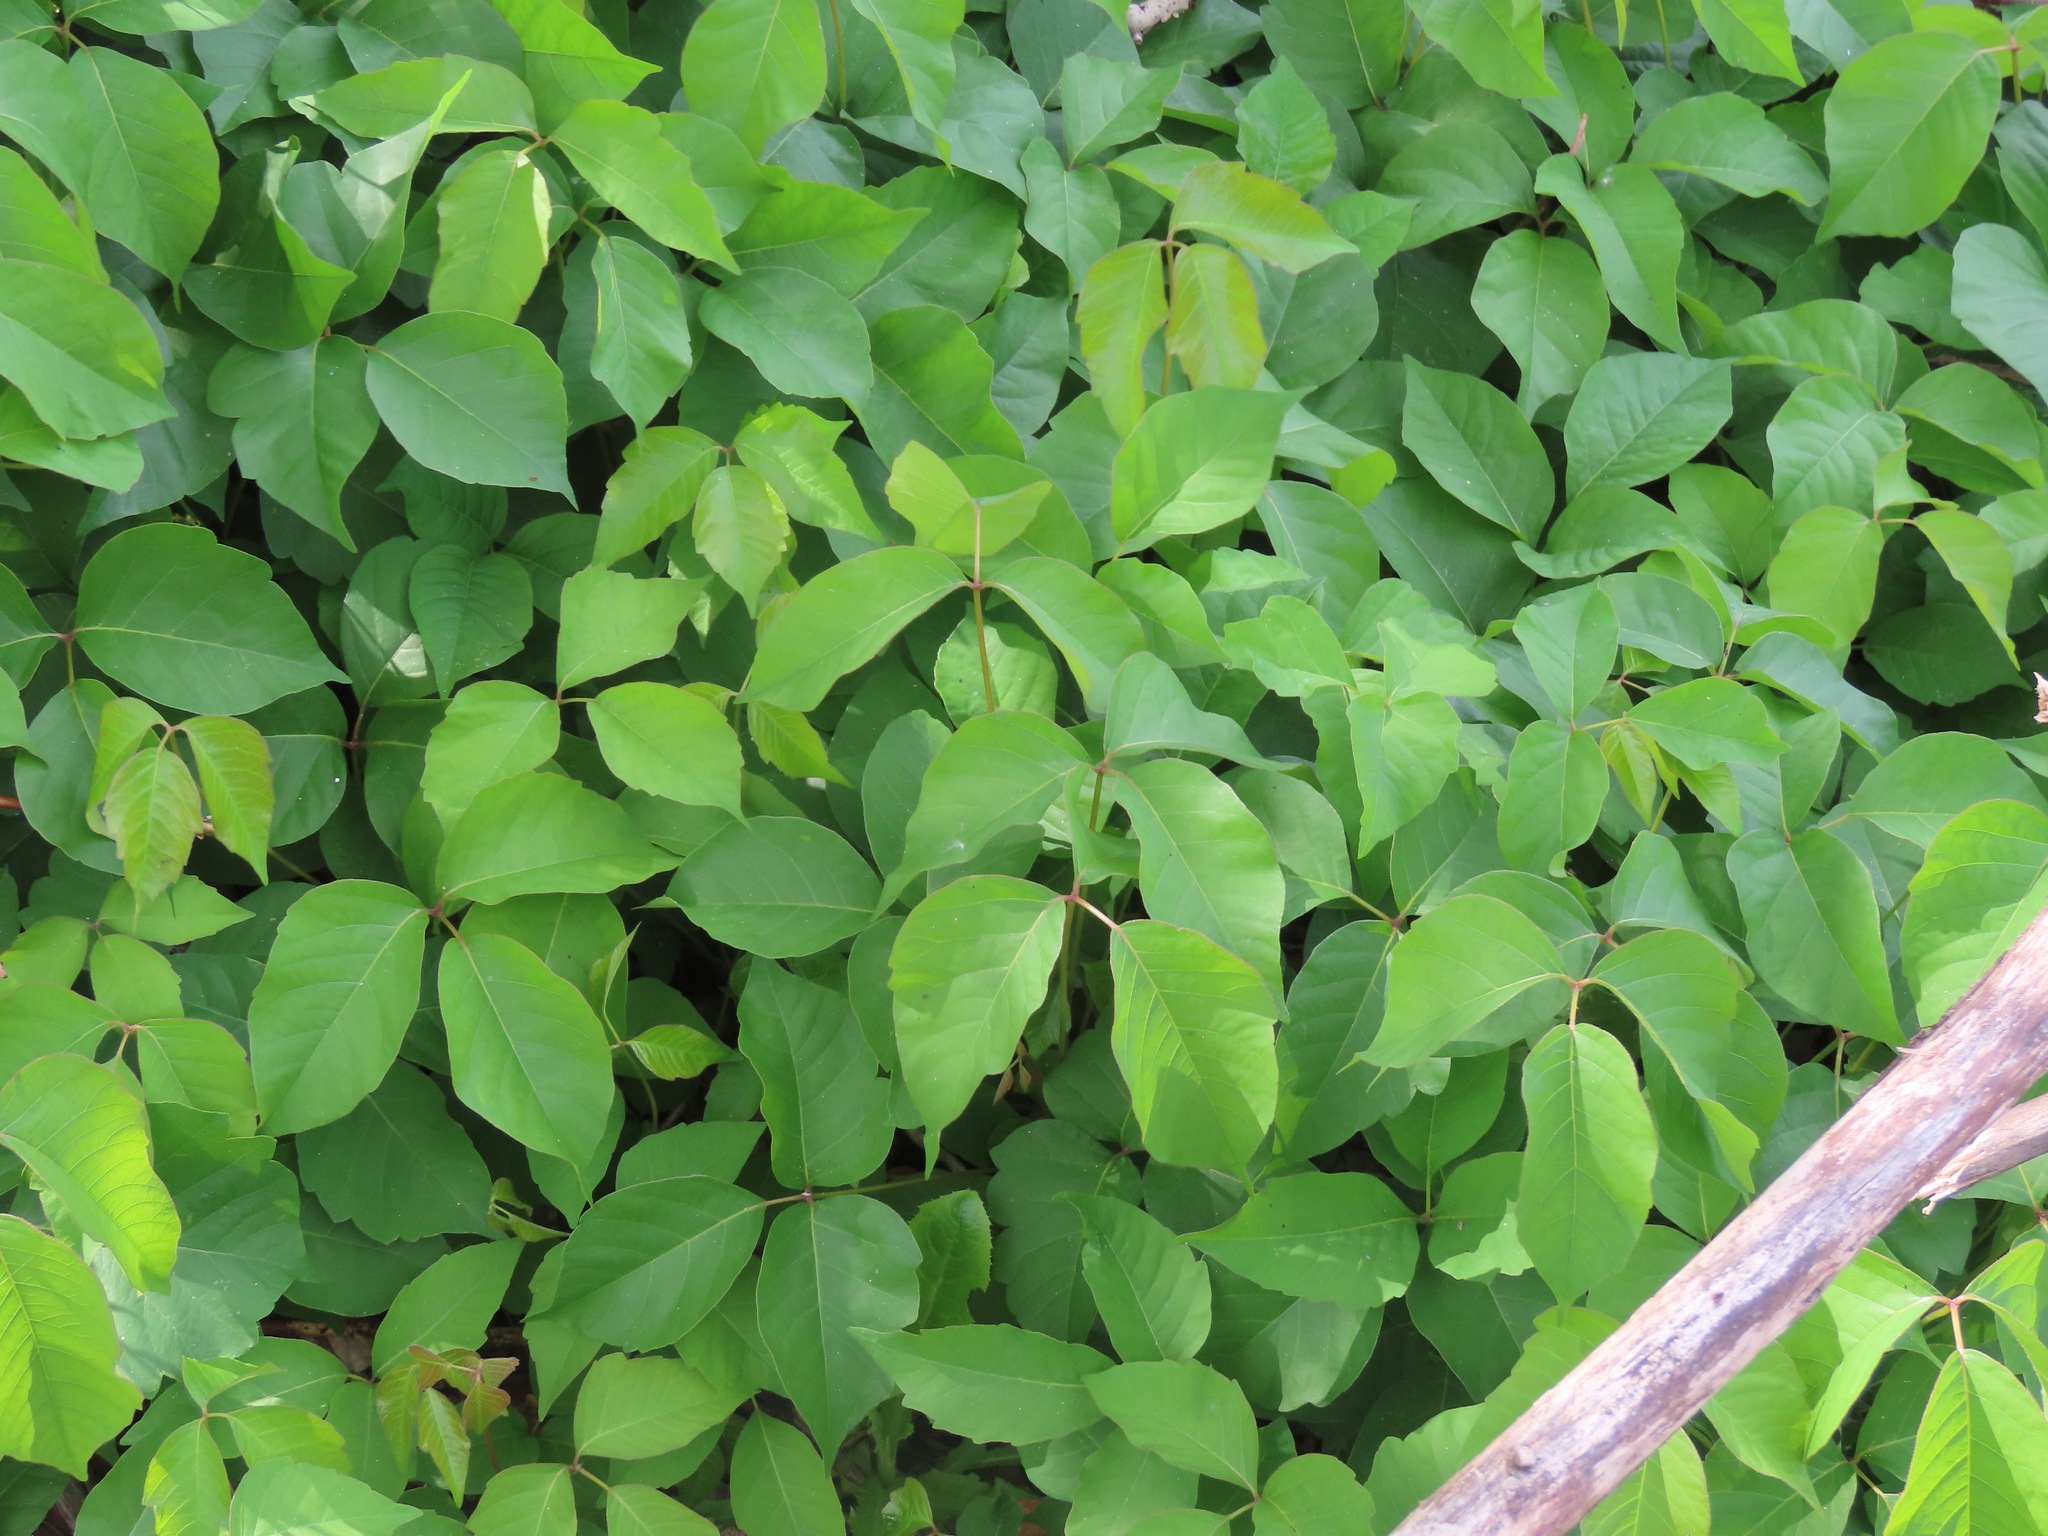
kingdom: Plantae
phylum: Tracheophyta
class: Magnoliopsida
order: Sapindales
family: Anacardiaceae
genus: Toxicodendron
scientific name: Toxicodendron rydbergii
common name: Rydberg's poison-ivy
